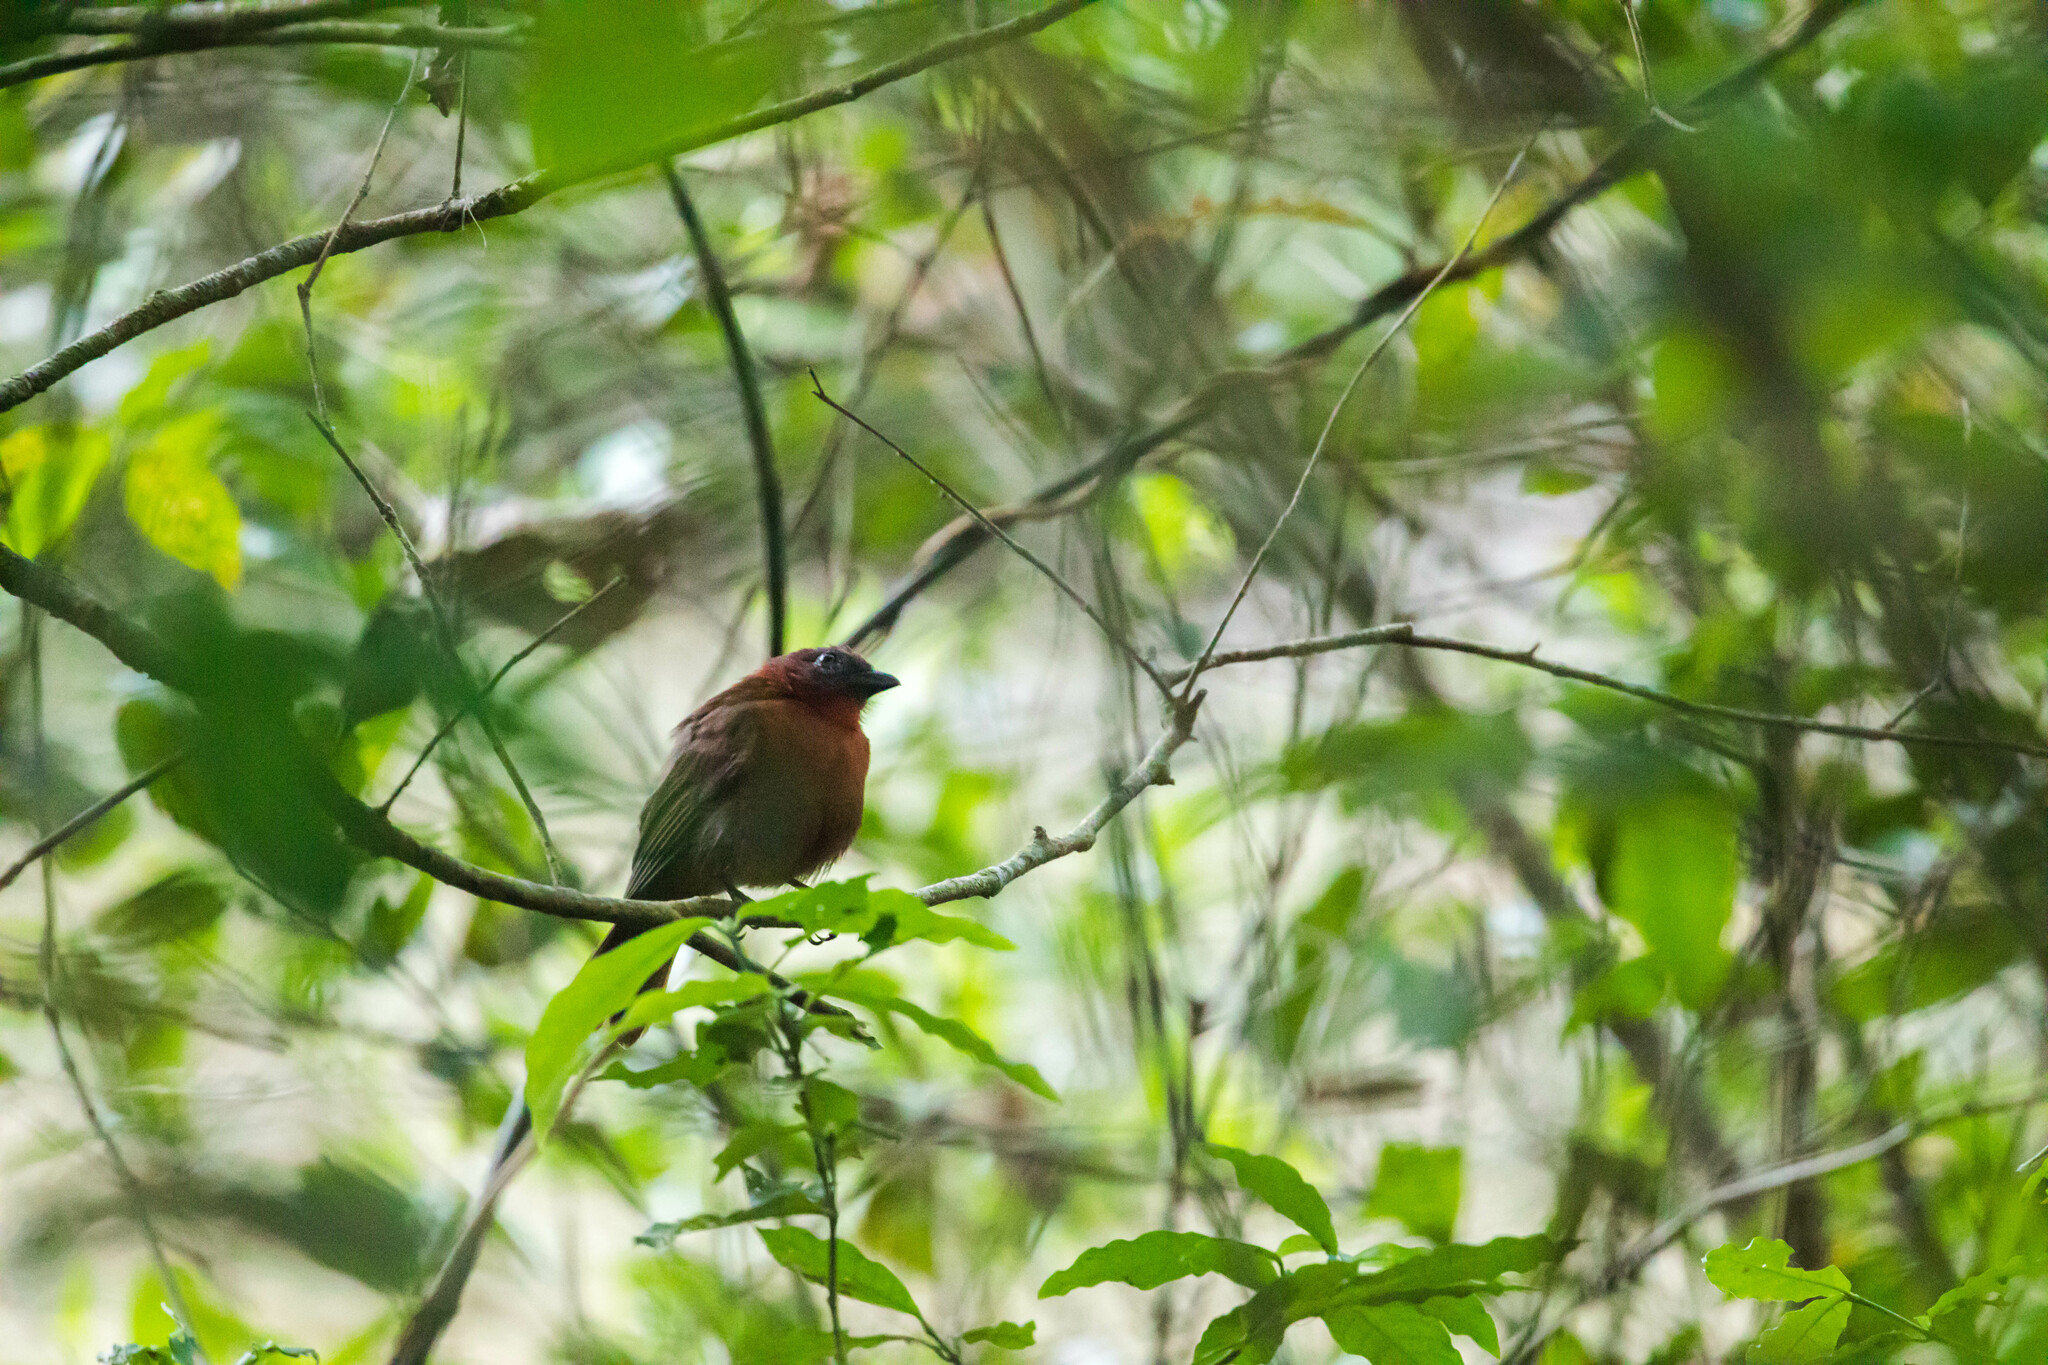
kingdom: Animalia
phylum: Chordata
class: Aves
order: Passeriformes
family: Cardinalidae
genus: Habia
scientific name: Habia fuscicauda
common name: Red-throated ant-tanager
